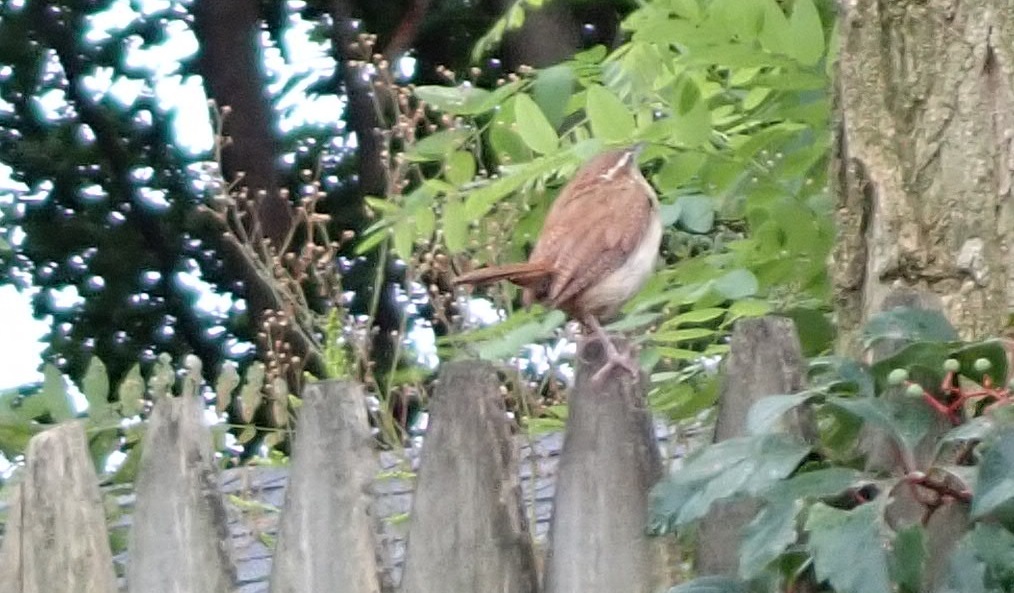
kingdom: Animalia
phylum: Chordata
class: Aves
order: Passeriformes
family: Troglodytidae
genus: Thryothorus
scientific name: Thryothorus ludovicianus
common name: Carolina wren
